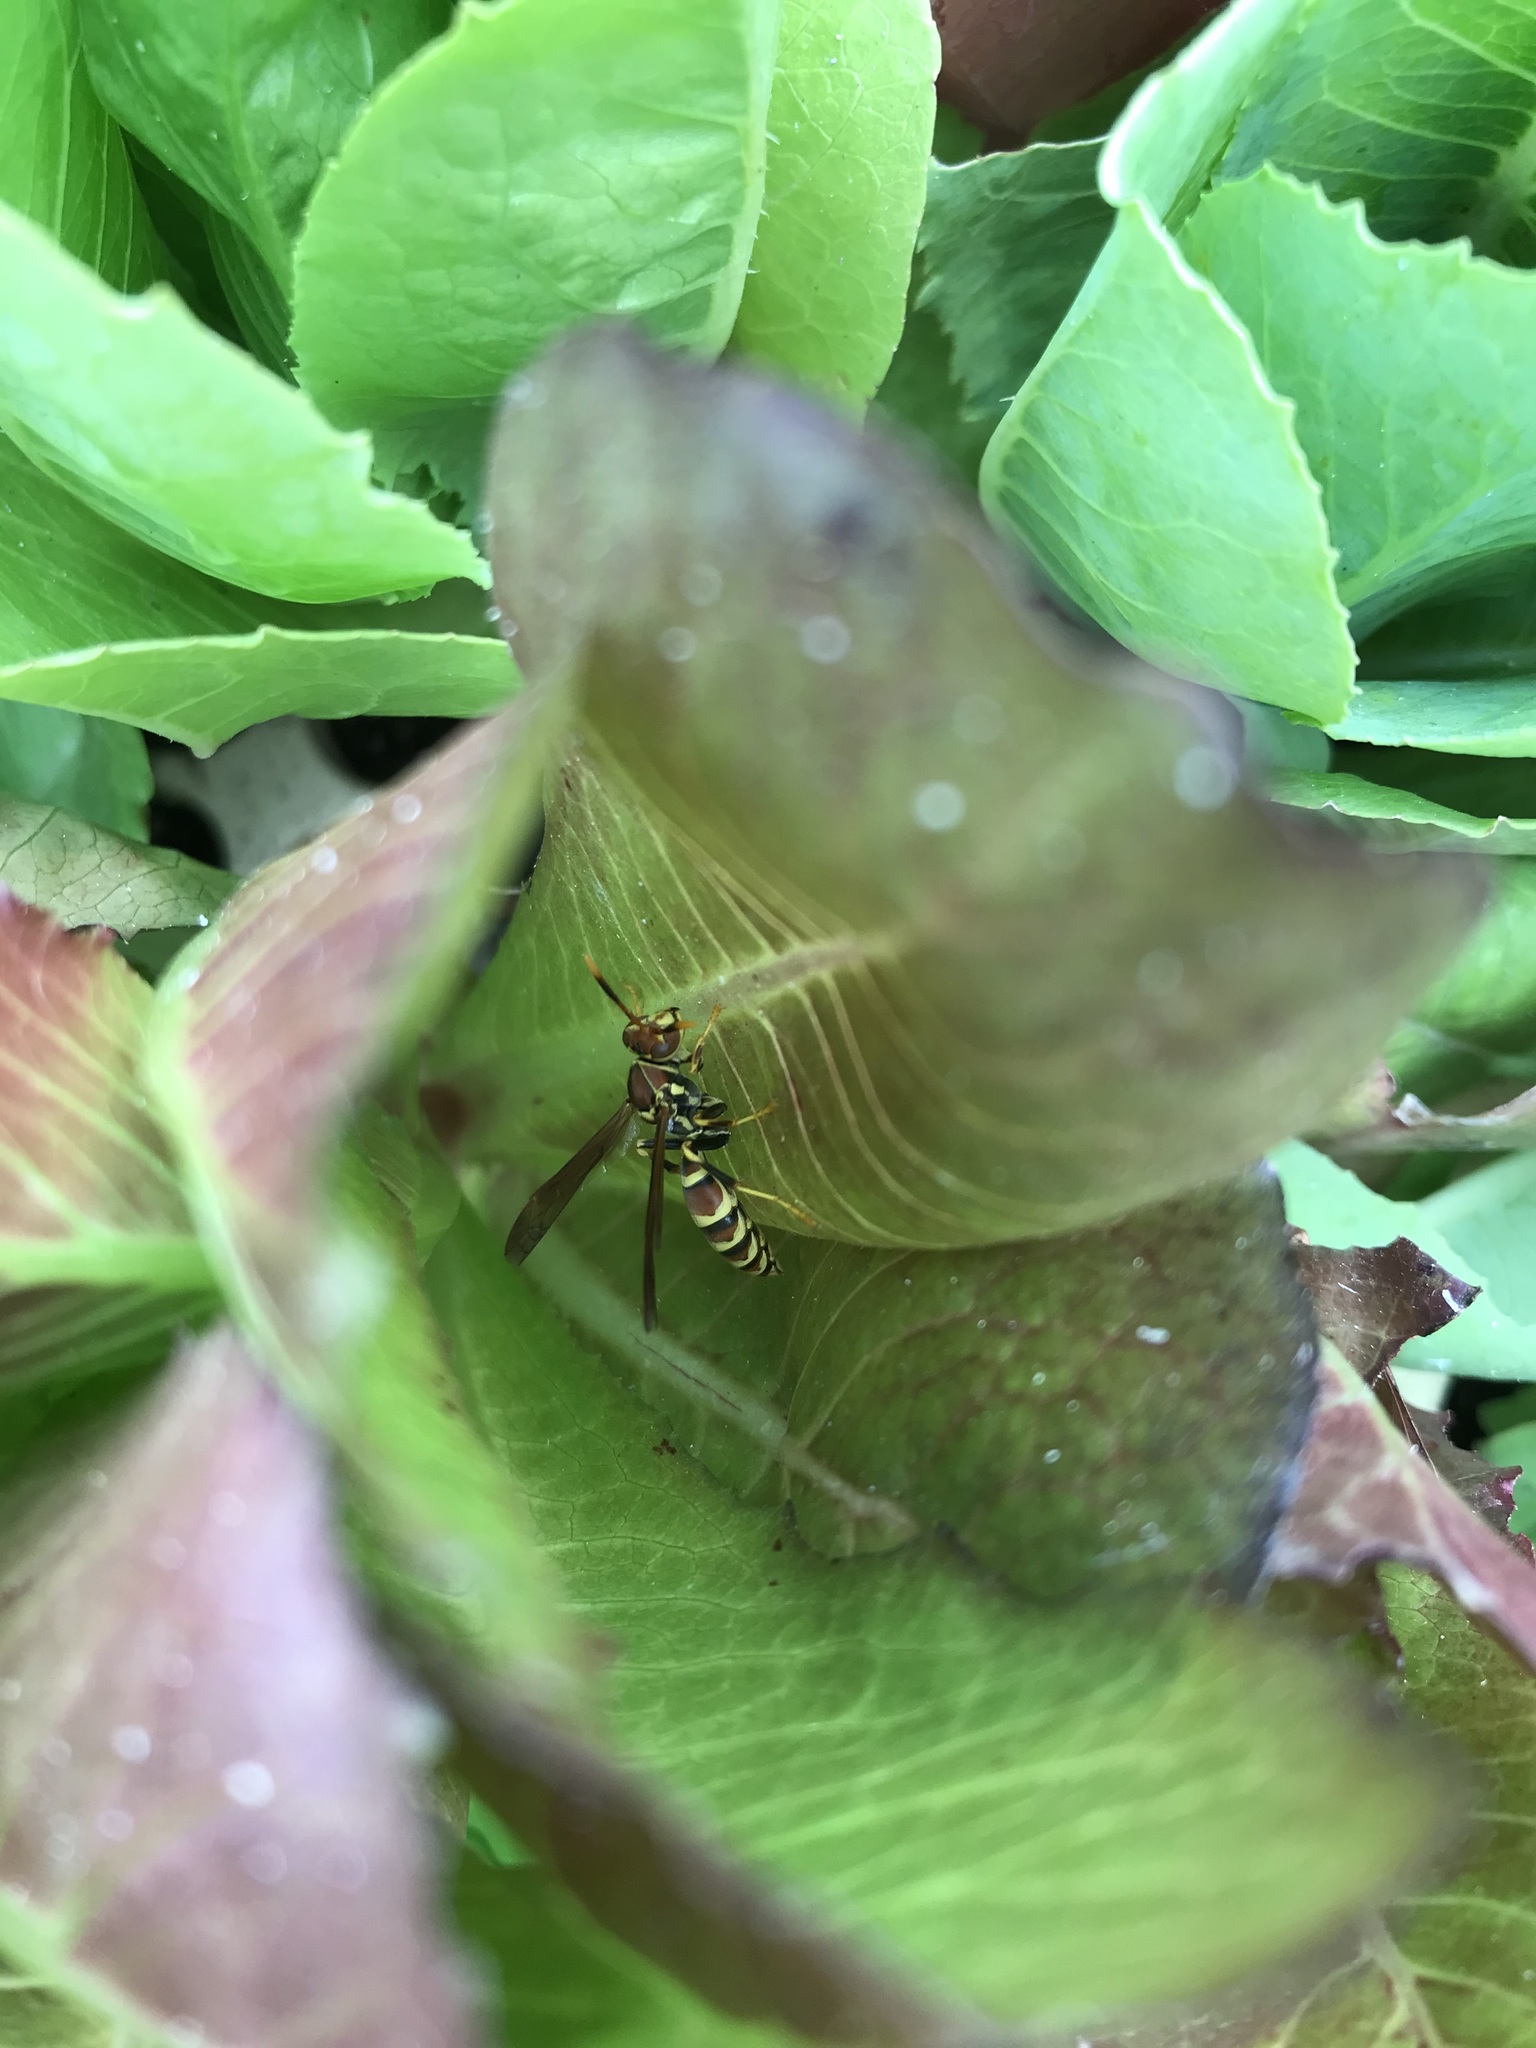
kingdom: Animalia
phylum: Arthropoda
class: Insecta
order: Hymenoptera
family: Eumenidae
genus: Polistes
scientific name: Polistes exclamans
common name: Paper wasp
